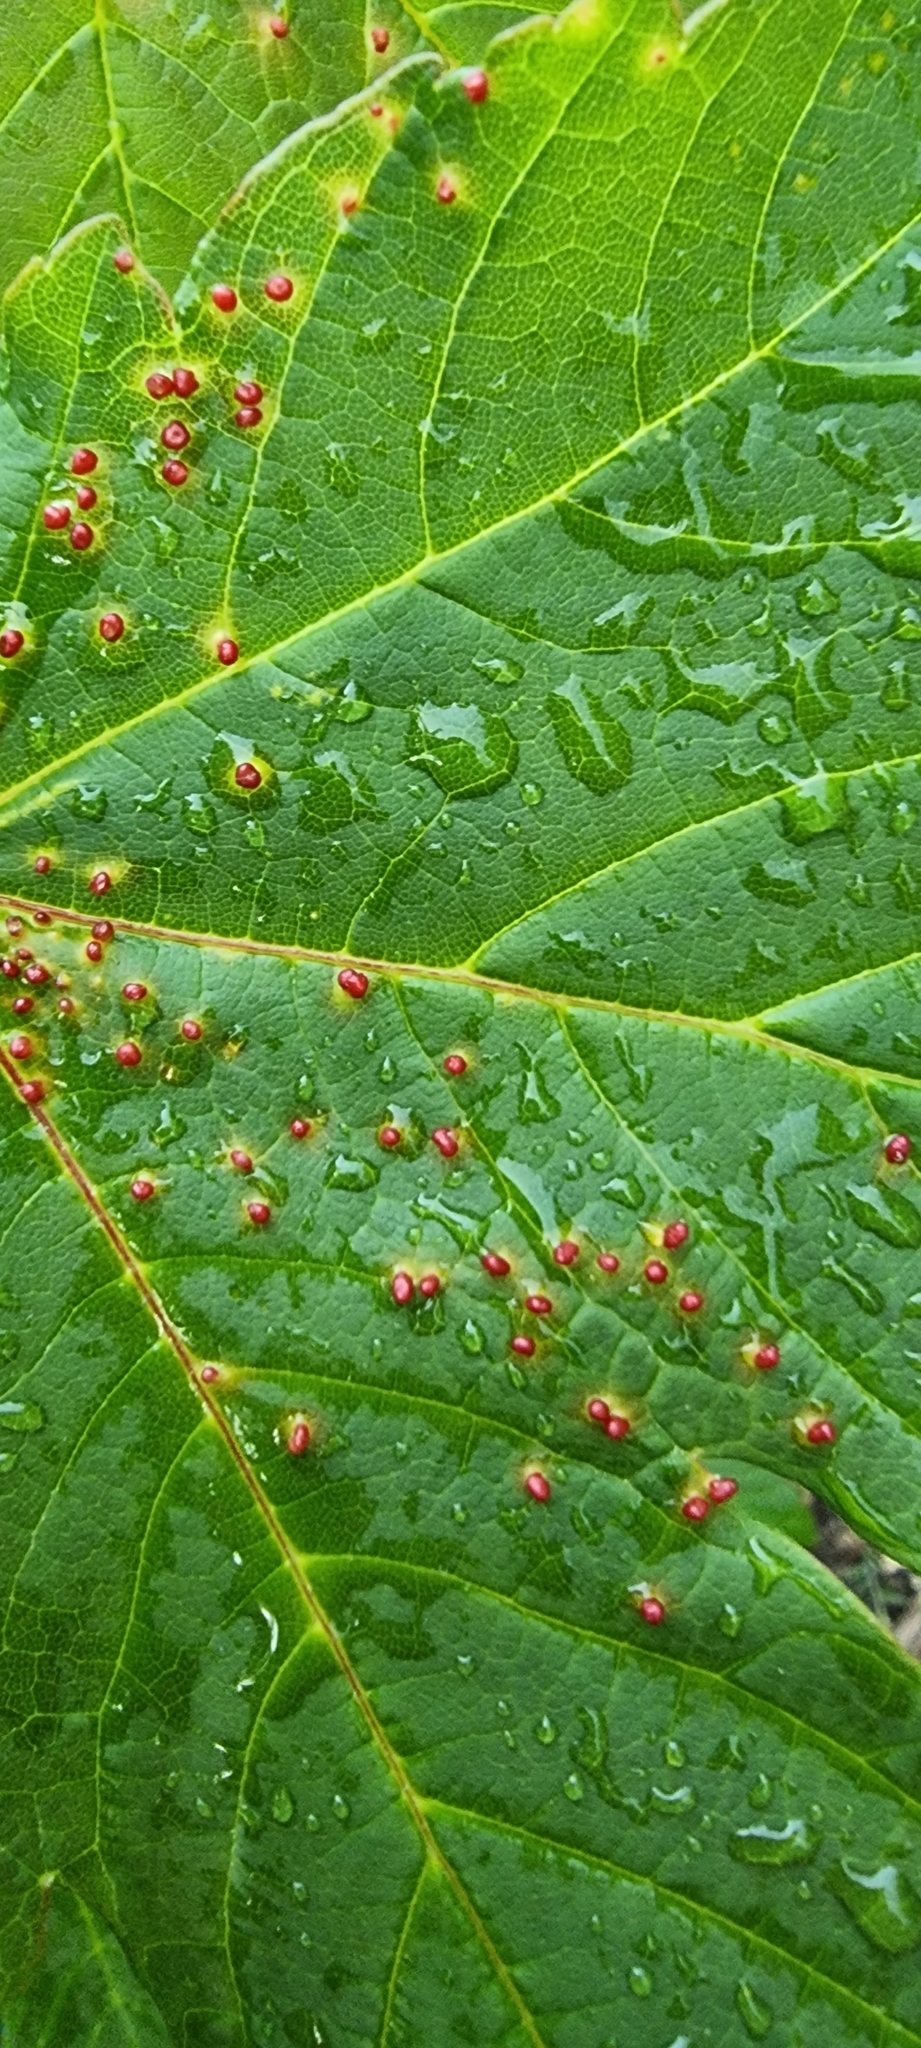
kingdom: Animalia
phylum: Arthropoda
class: Arachnida
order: Trombidiformes
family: Eriophyidae
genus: Aceria
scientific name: Aceria cephaloneus
